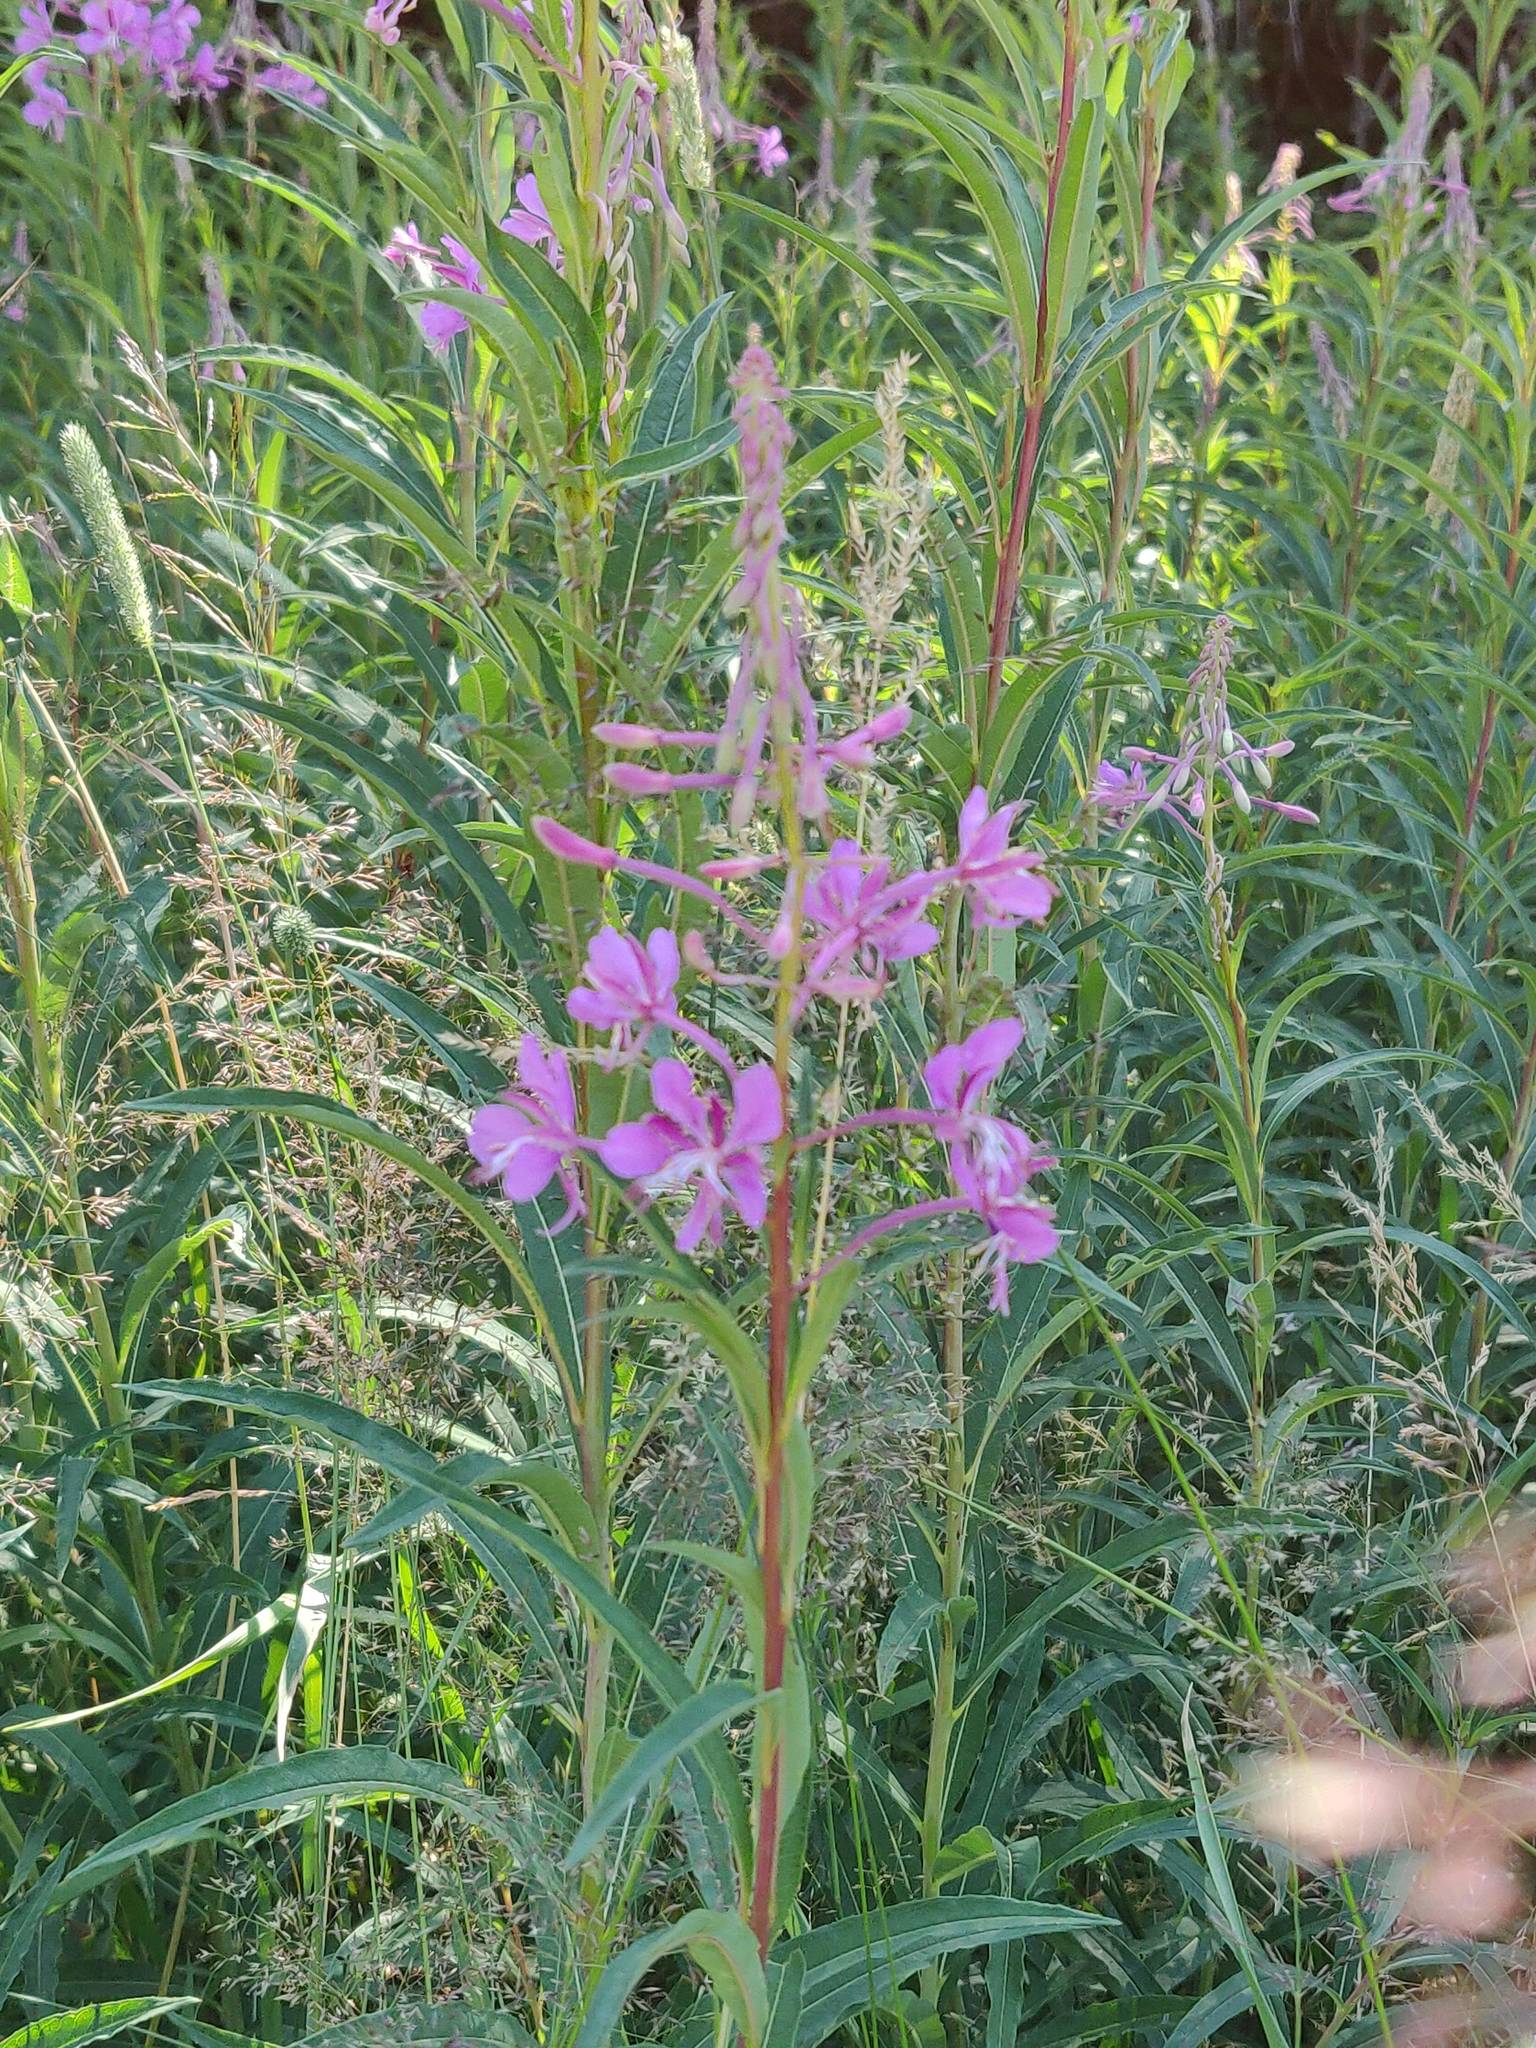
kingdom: Plantae
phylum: Tracheophyta
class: Magnoliopsida
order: Myrtales
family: Onagraceae
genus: Chamaenerion
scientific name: Chamaenerion angustifolium
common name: Fireweed
